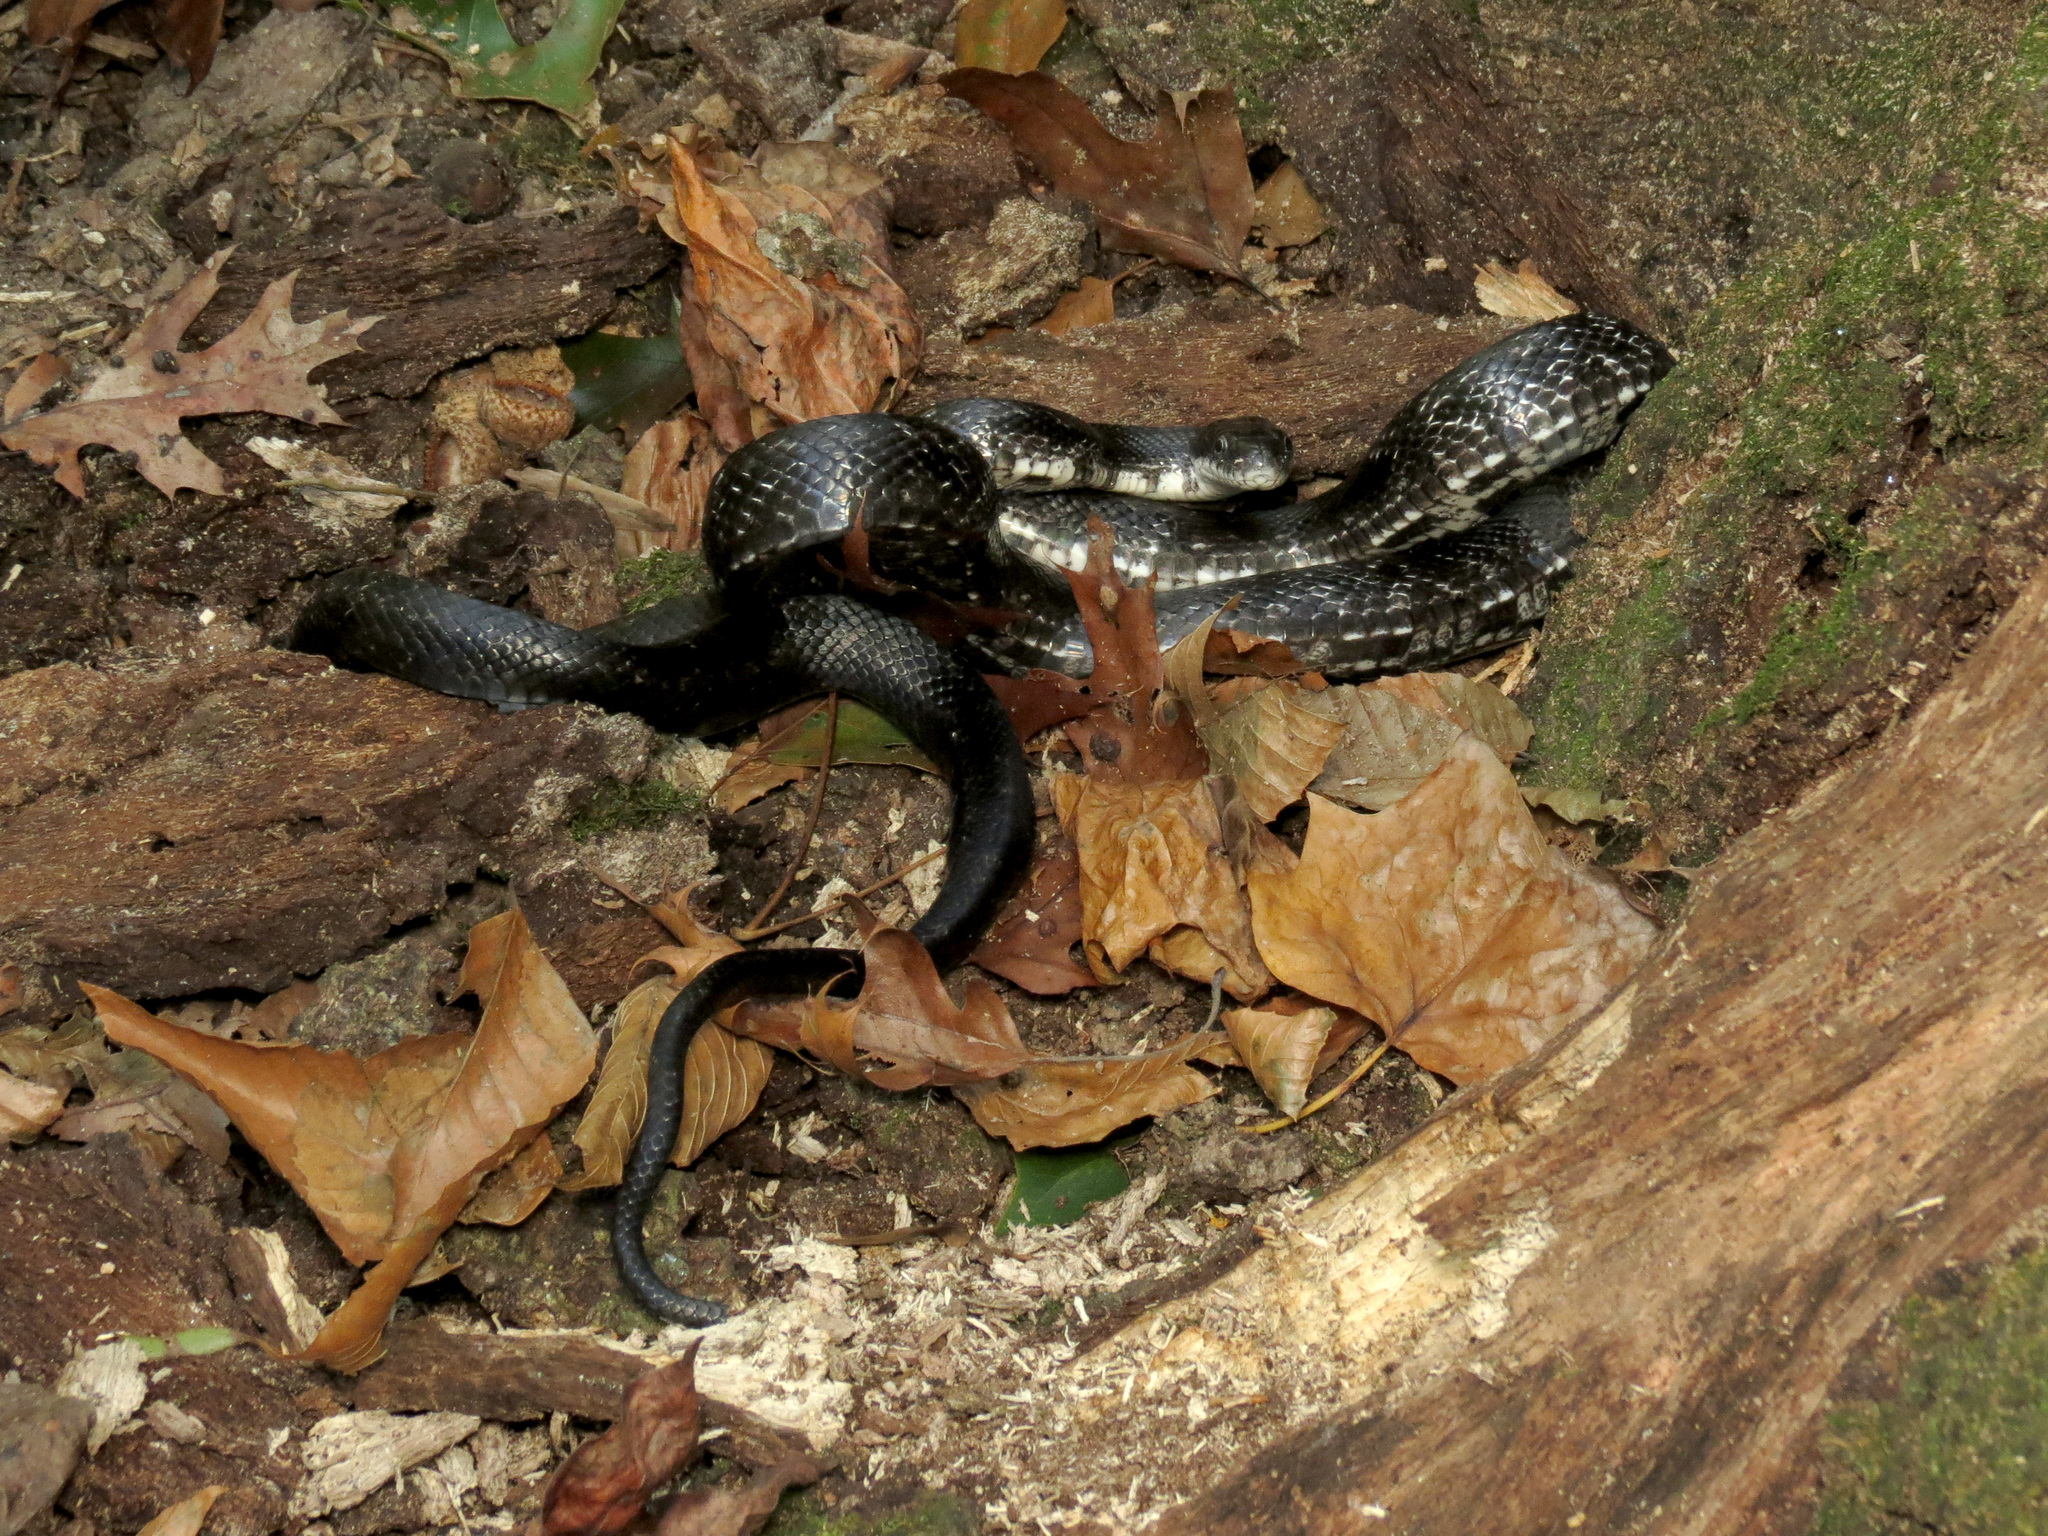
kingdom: Animalia
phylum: Chordata
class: Squamata
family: Colubridae
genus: Pantherophis
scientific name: Pantherophis alleghaniensis
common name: Eastern rat snake
